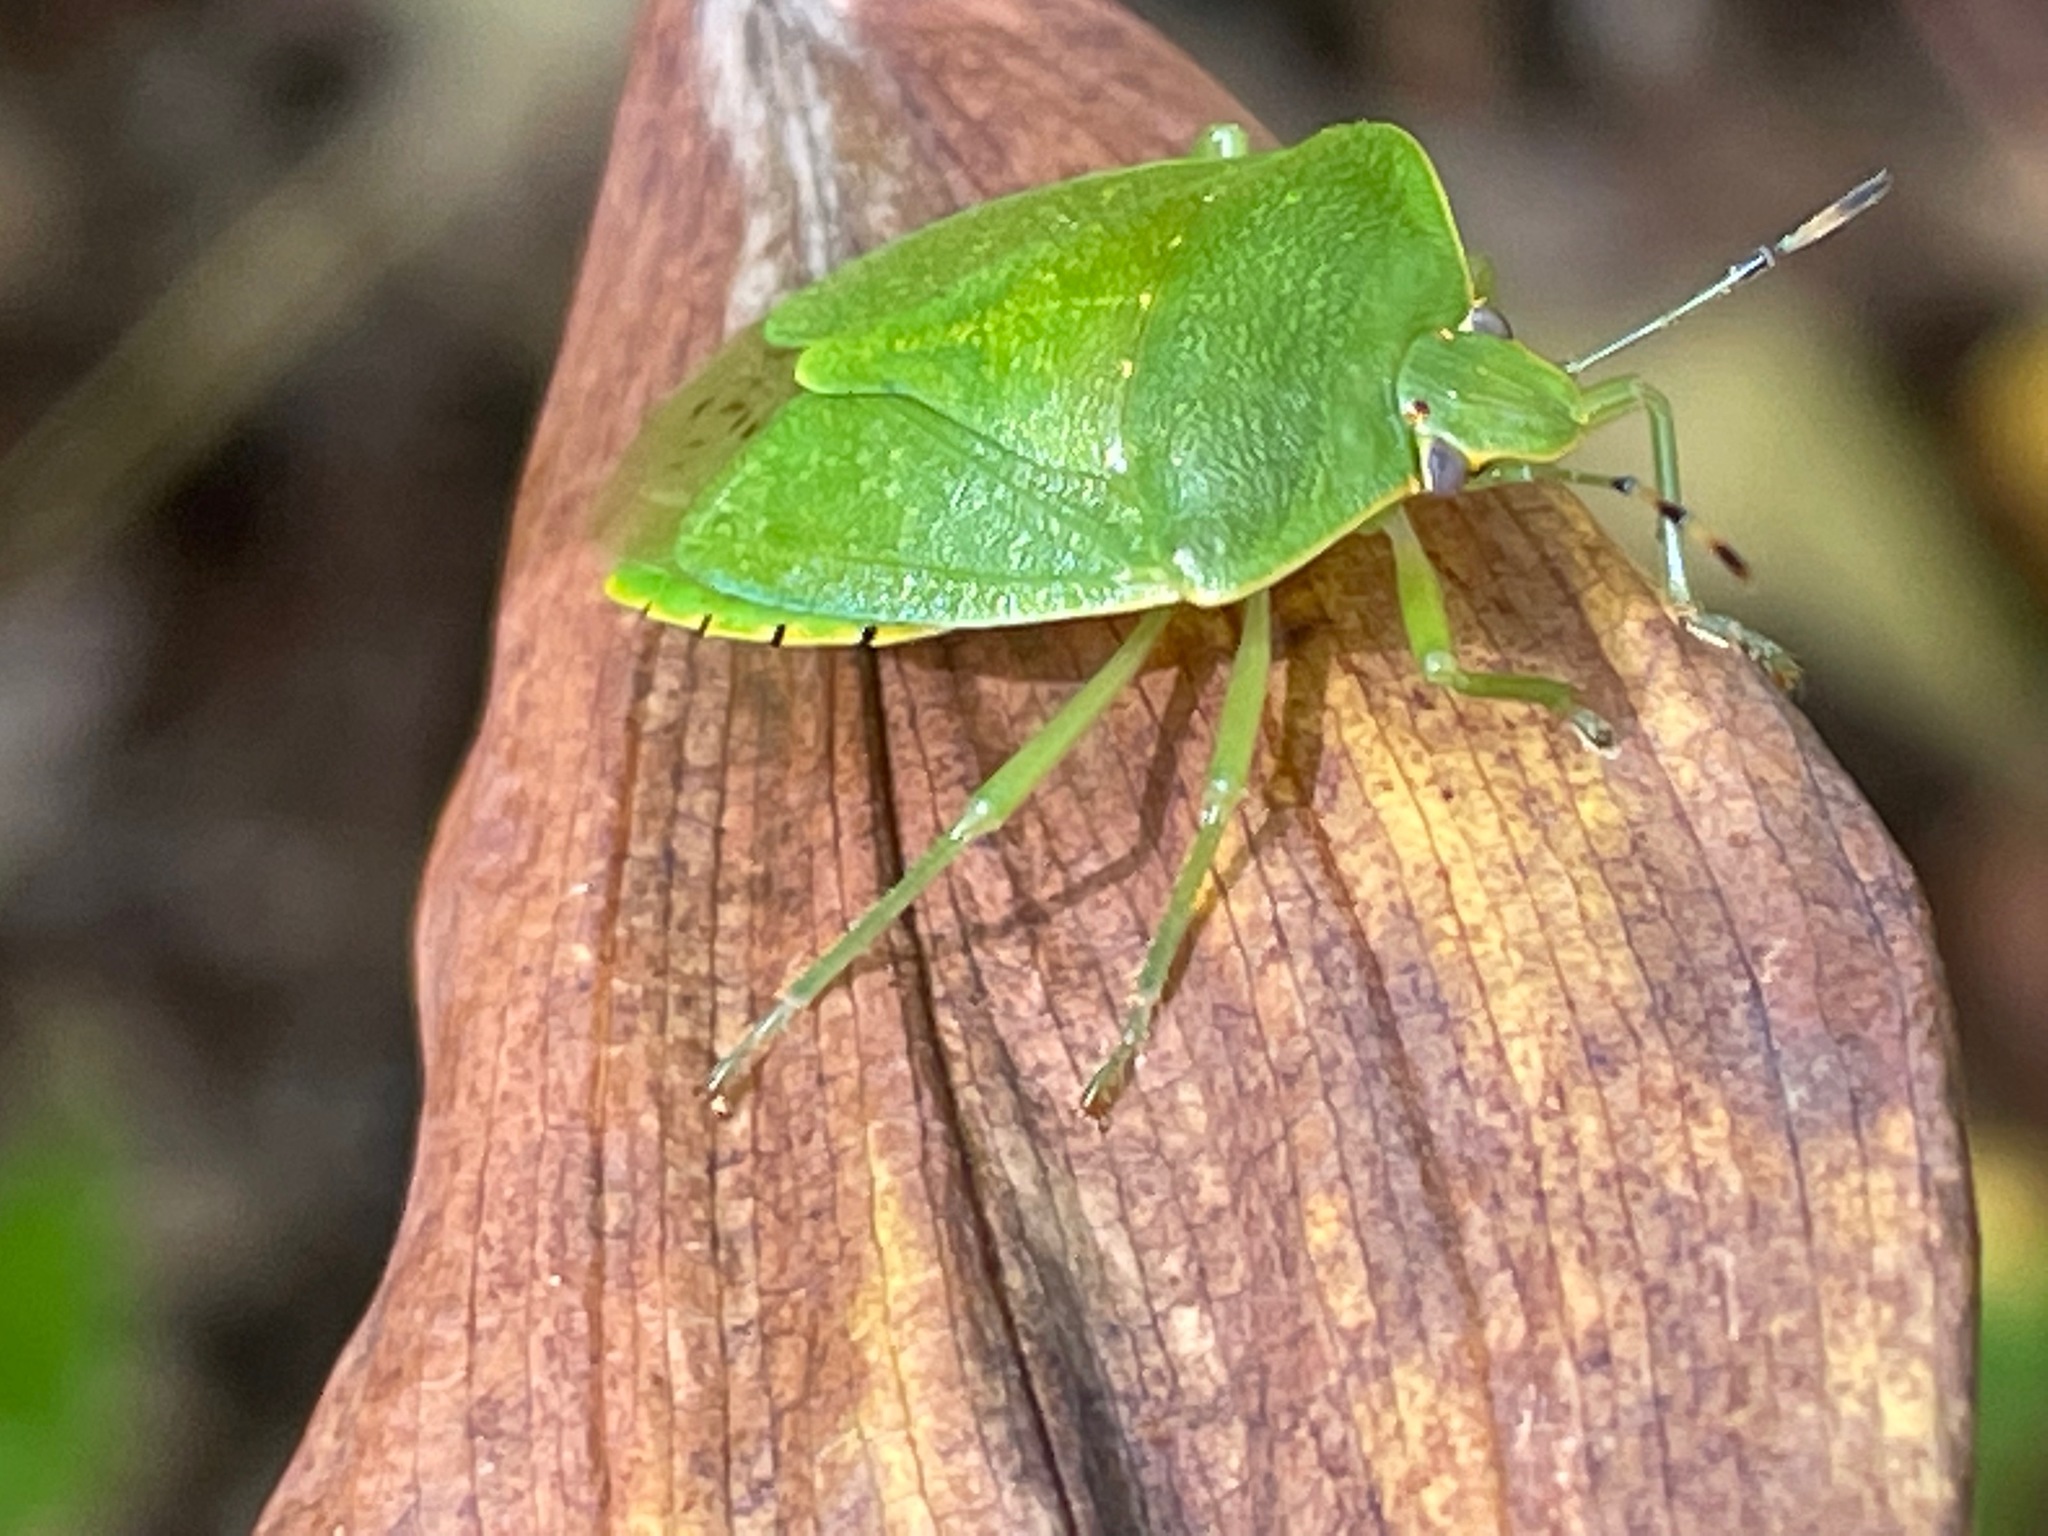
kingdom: Animalia
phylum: Arthropoda
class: Insecta
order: Hemiptera
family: Pentatomidae
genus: Chinavia
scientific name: Chinavia hilaris
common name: Green stink bug
